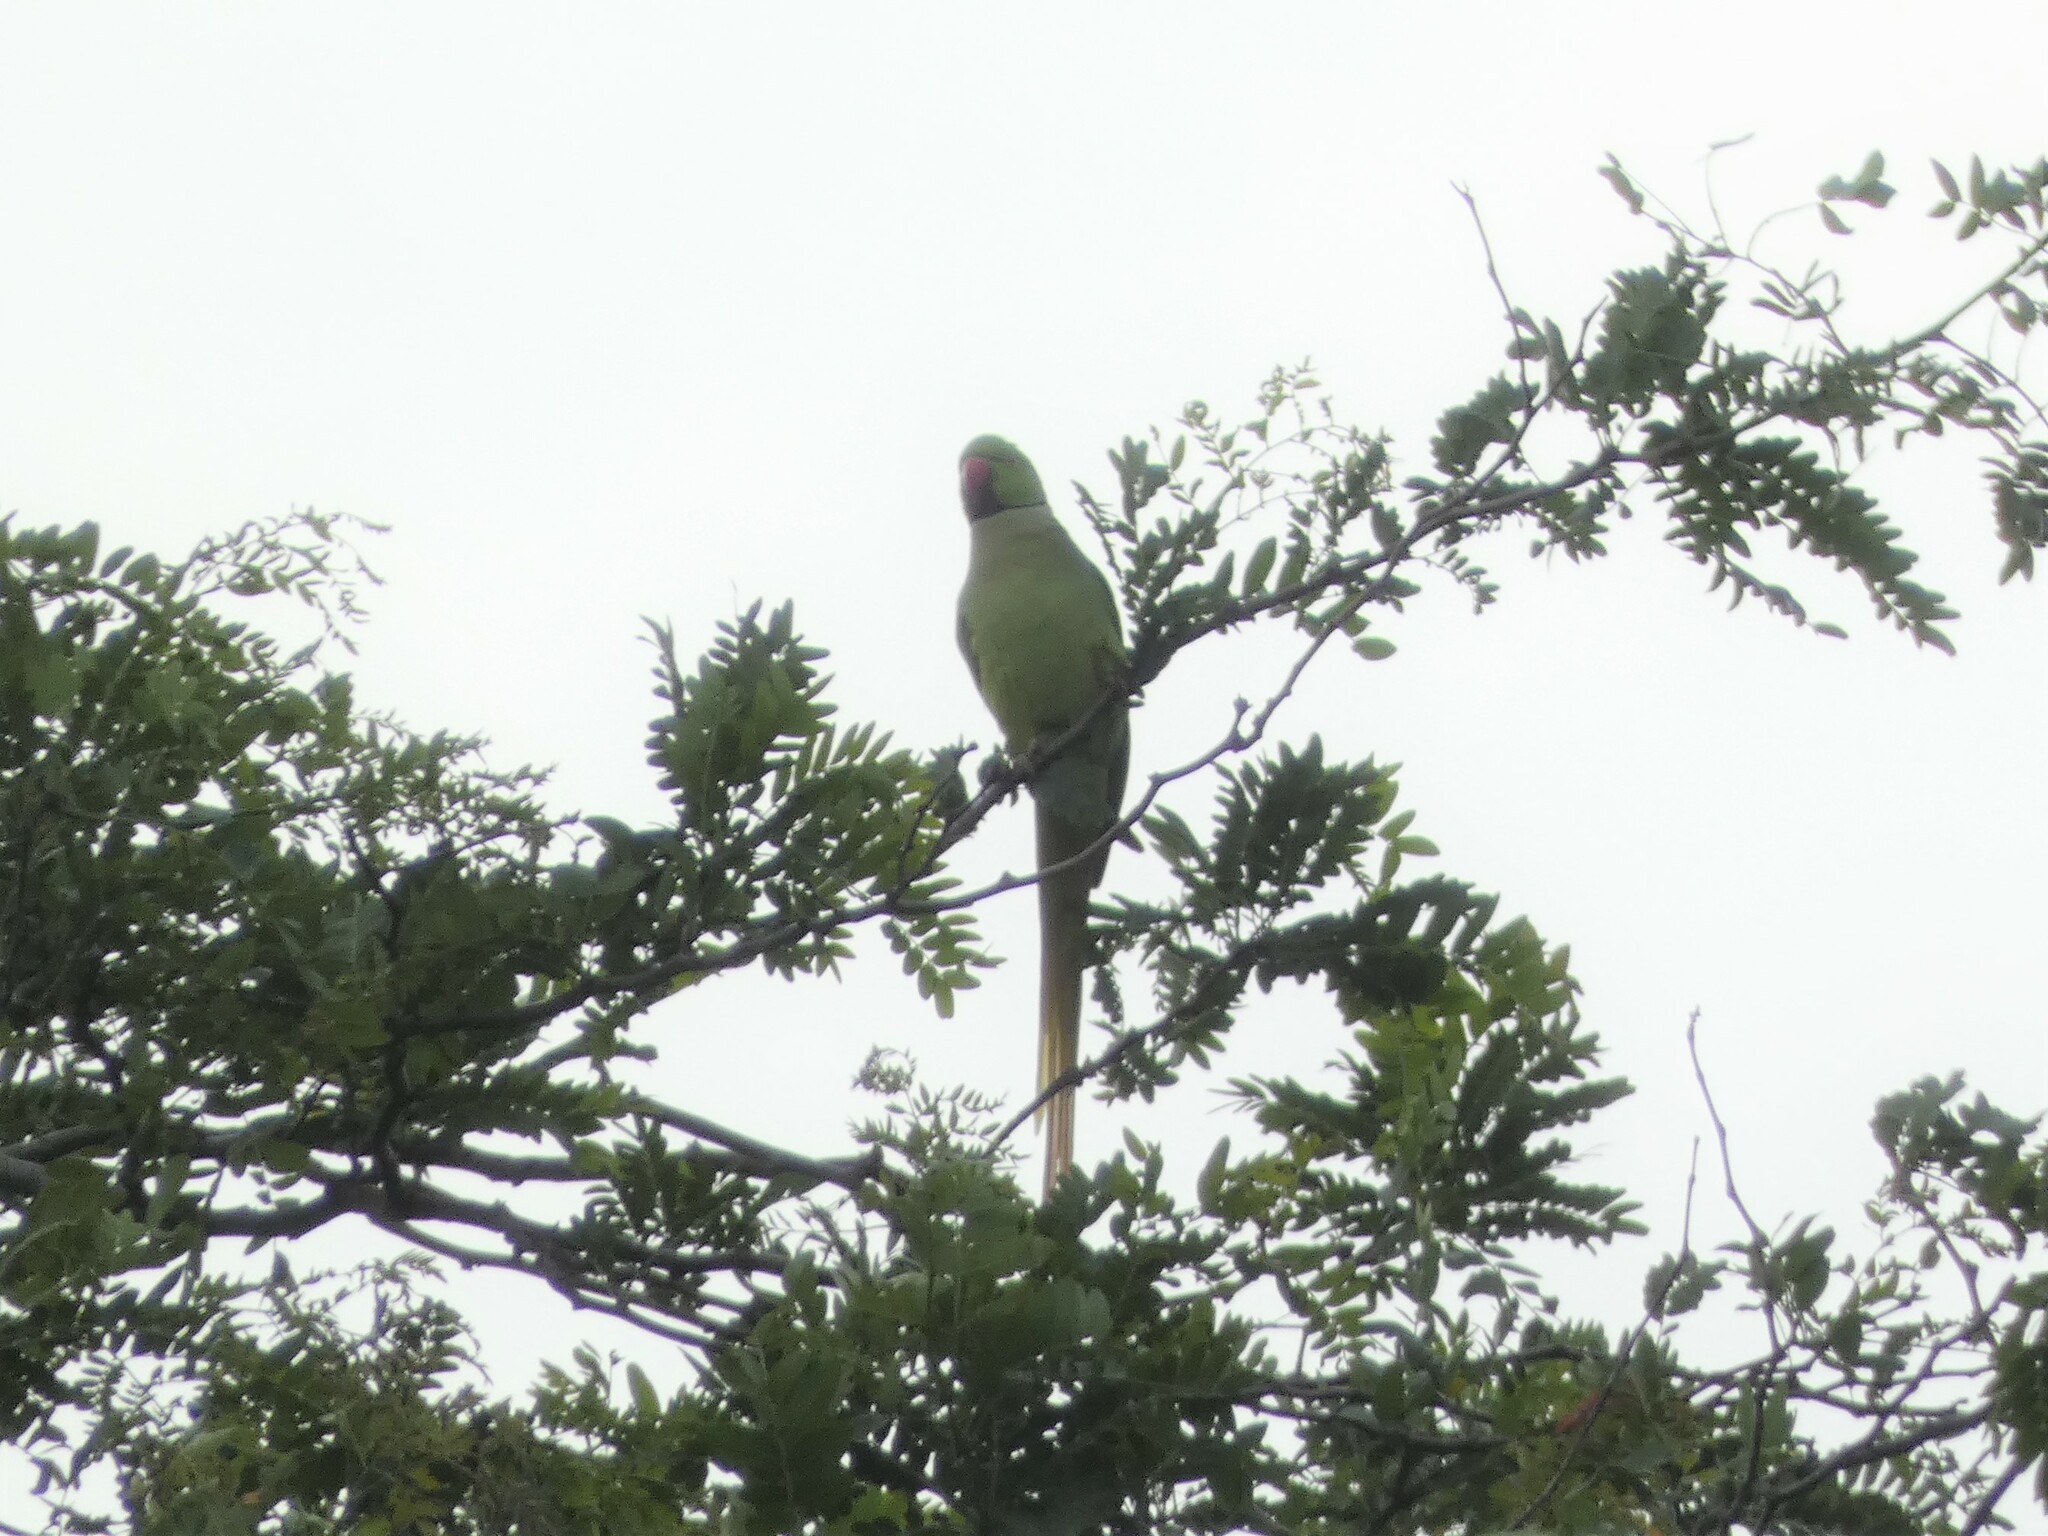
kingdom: Animalia
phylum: Chordata
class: Aves
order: Psittaciformes
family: Psittacidae
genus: Psittacula
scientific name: Psittacula krameri
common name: Rose-ringed parakeet
